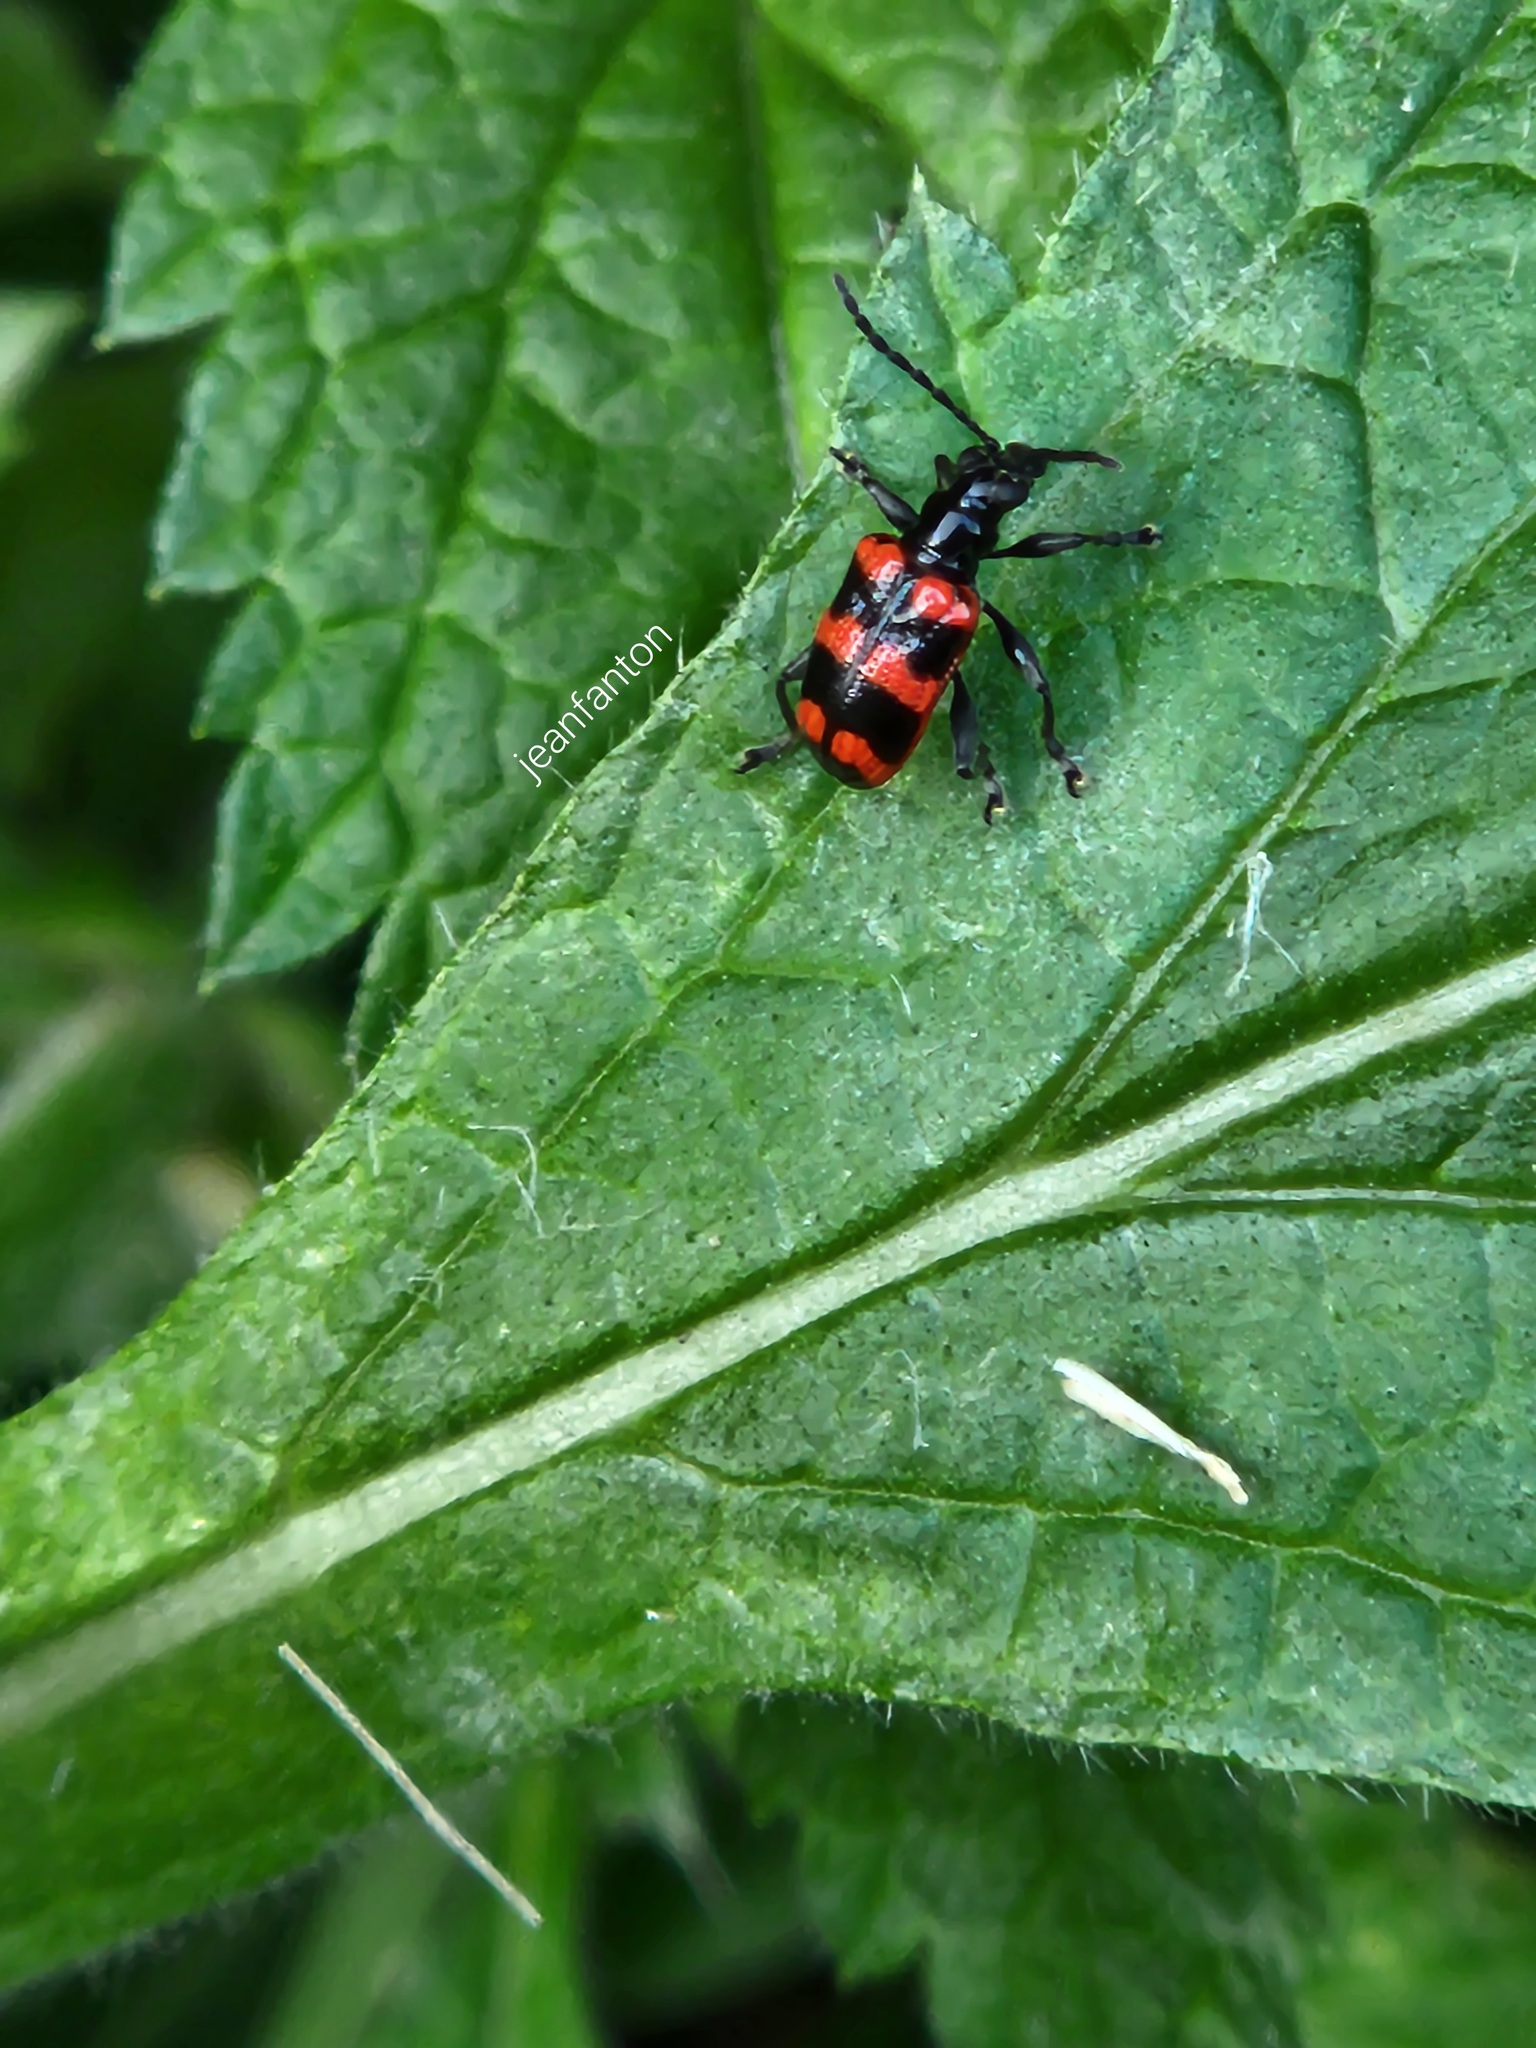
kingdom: Animalia
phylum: Arthropoda
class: Insecta
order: Coleoptera
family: Chrysomelidae
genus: Neolema
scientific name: Neolema
